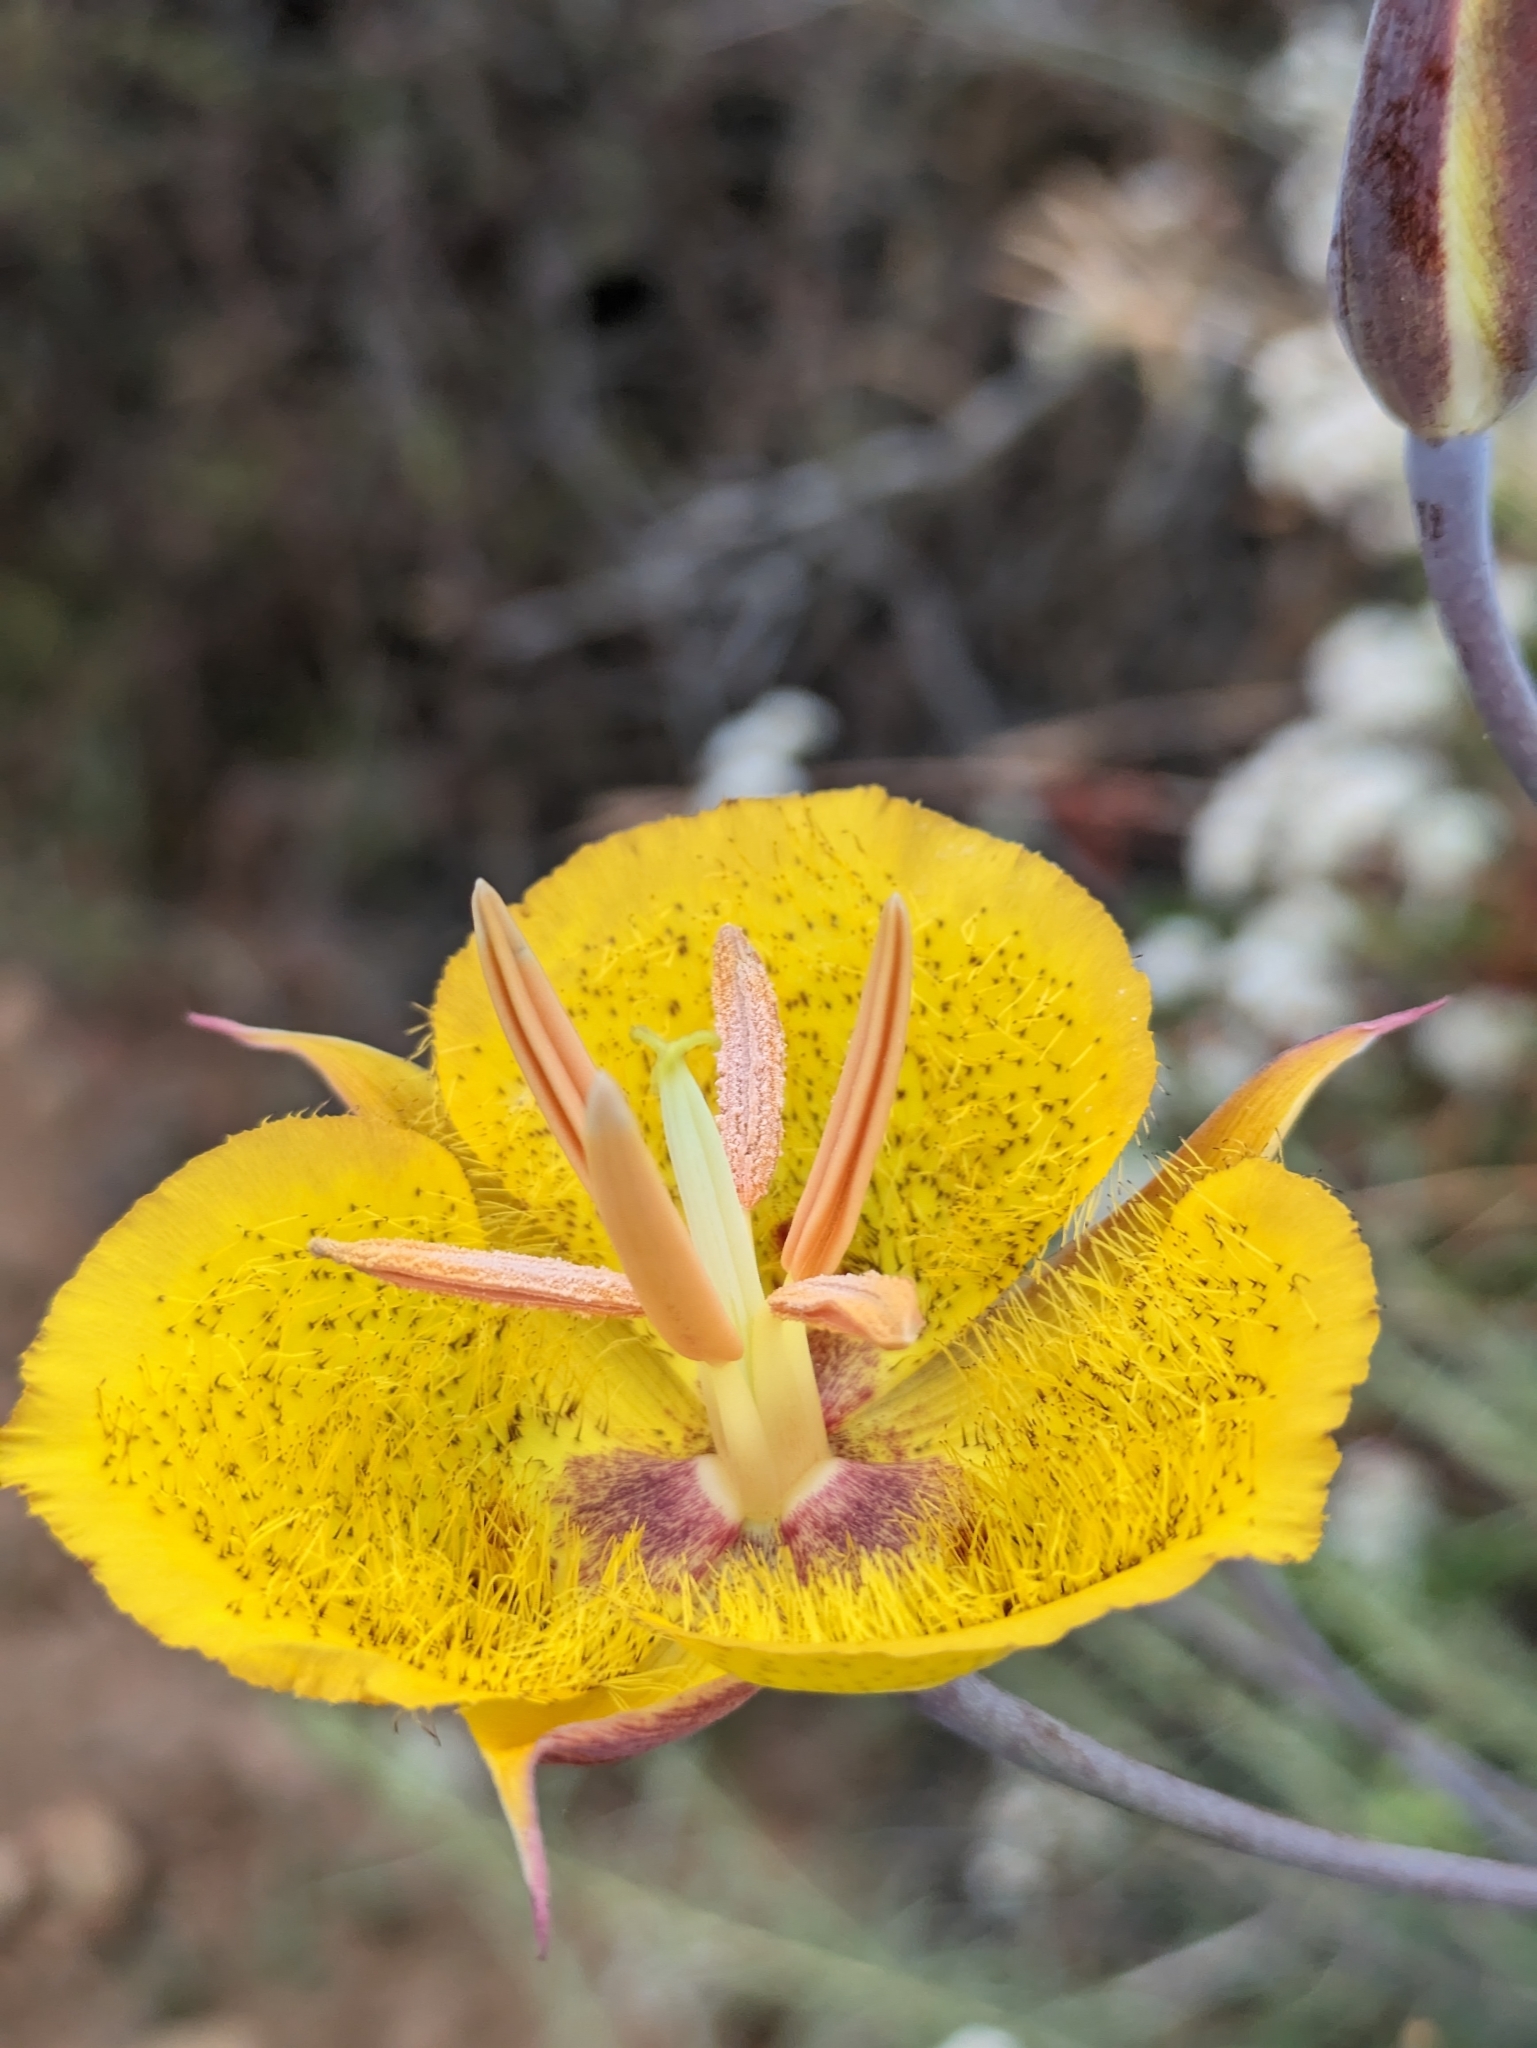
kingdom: Plantae
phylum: Tracheophyta
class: Liliopsida
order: Liliales
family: Liliaceae
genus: Calochortus
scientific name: Calochortus weedii
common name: Weed's mariposa-lily
